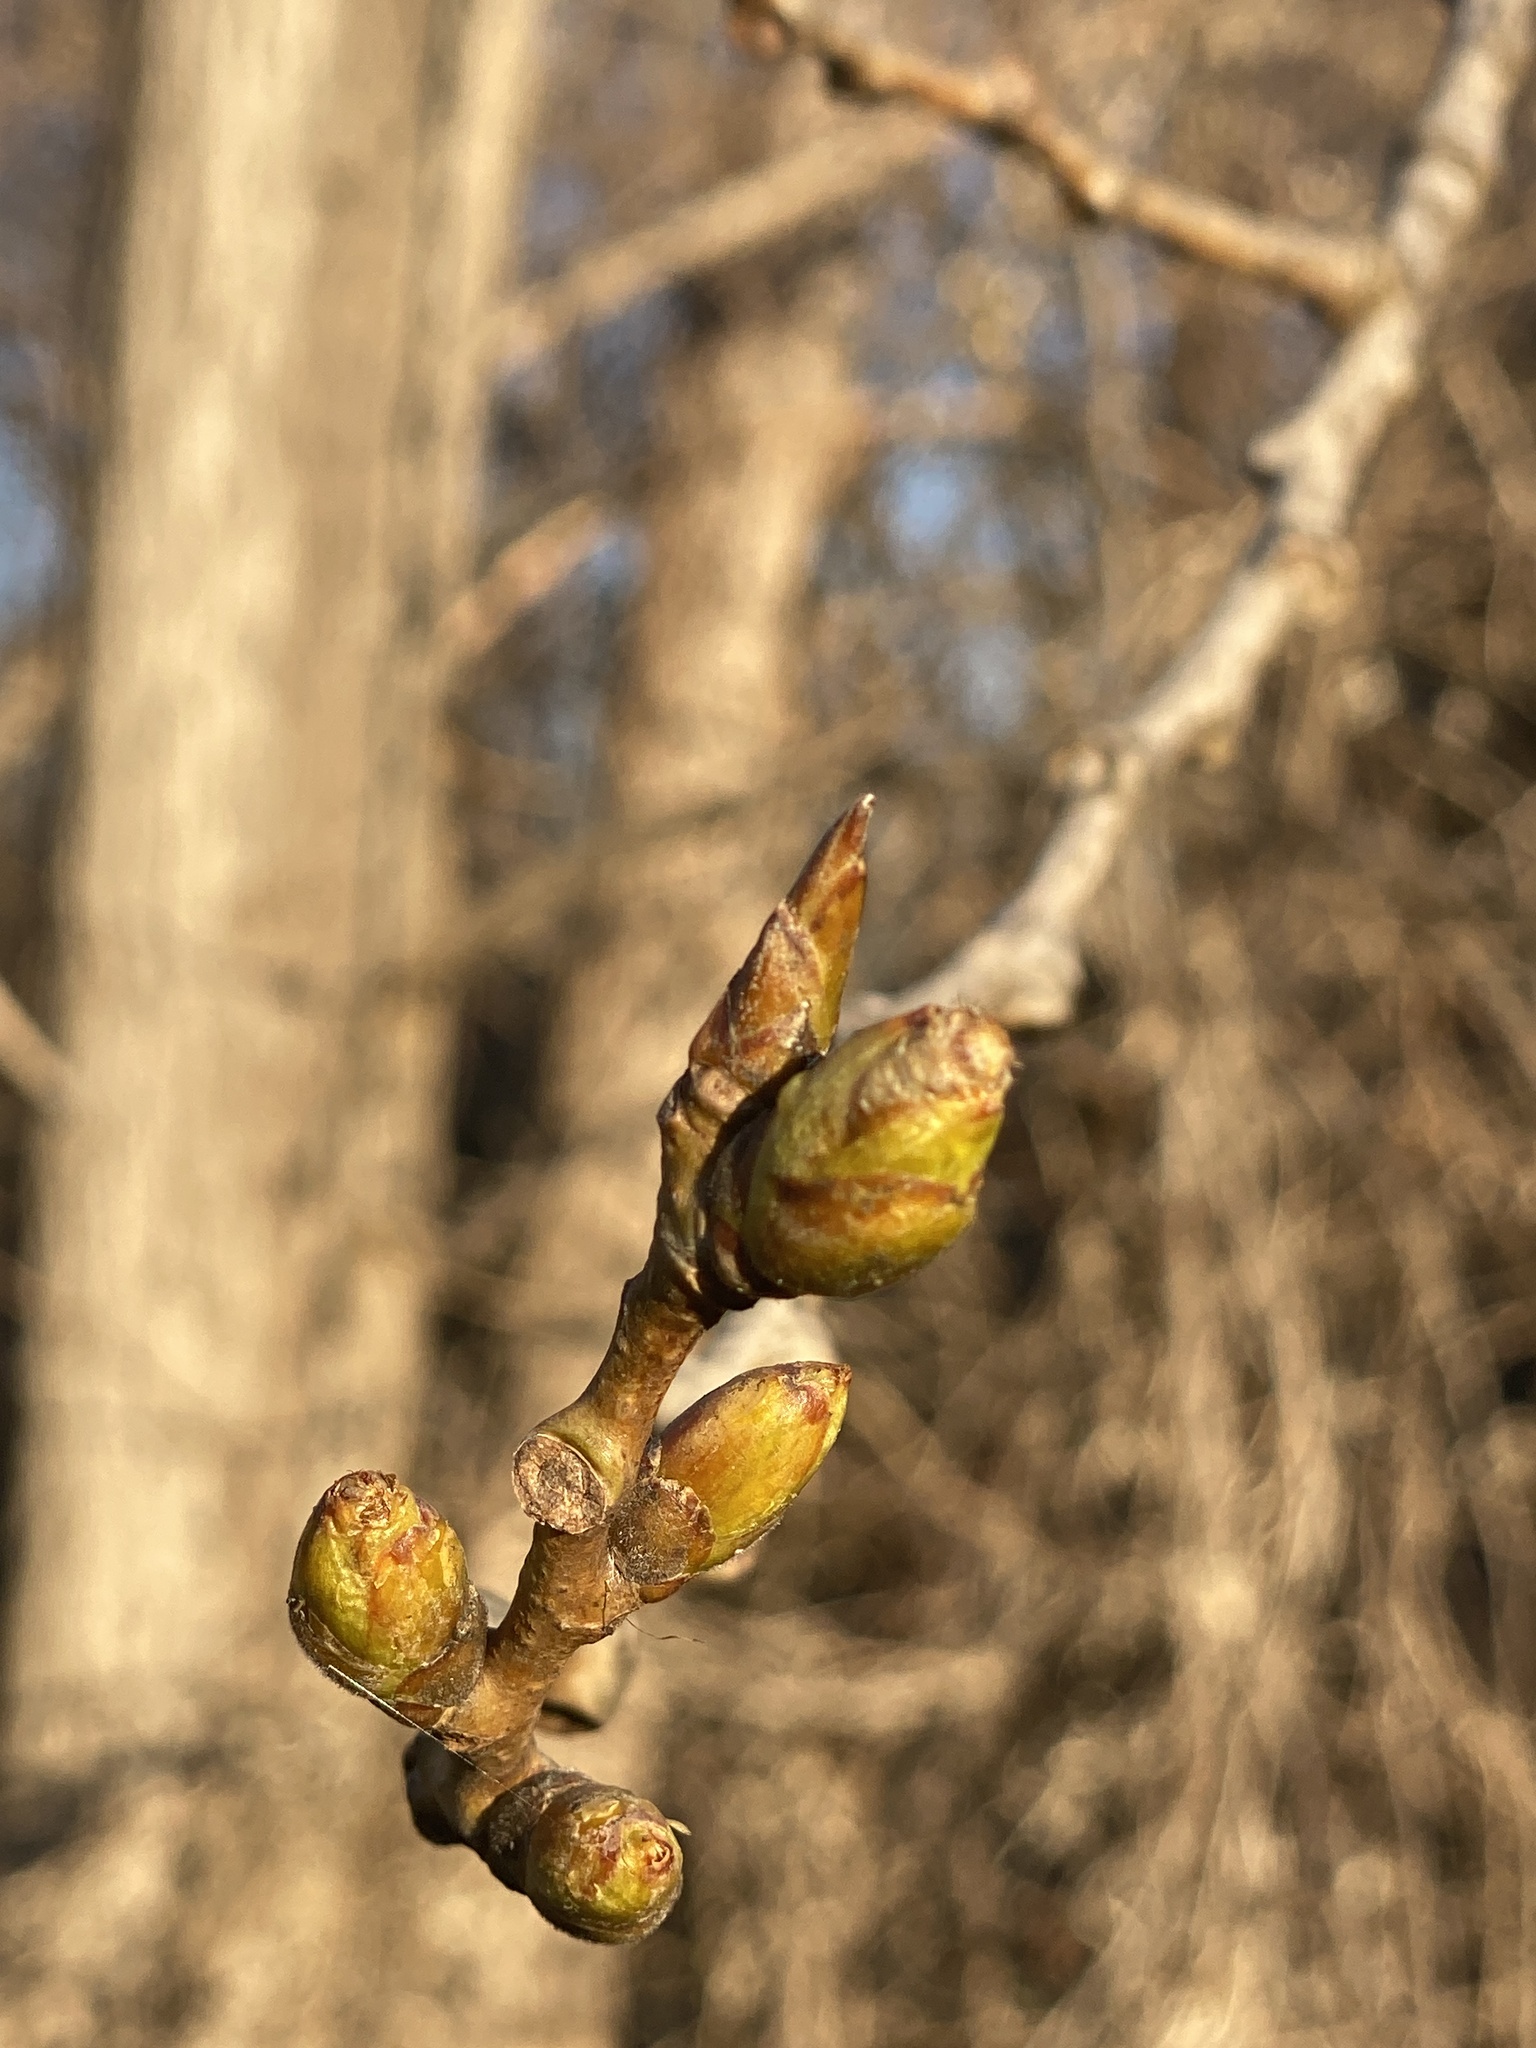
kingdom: Plantae
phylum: Tracheophyta
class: Magnoliopsida
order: Malpighiales
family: Salicaceae
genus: Populus
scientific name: Populus deltoides
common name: Eastern cottonwood
